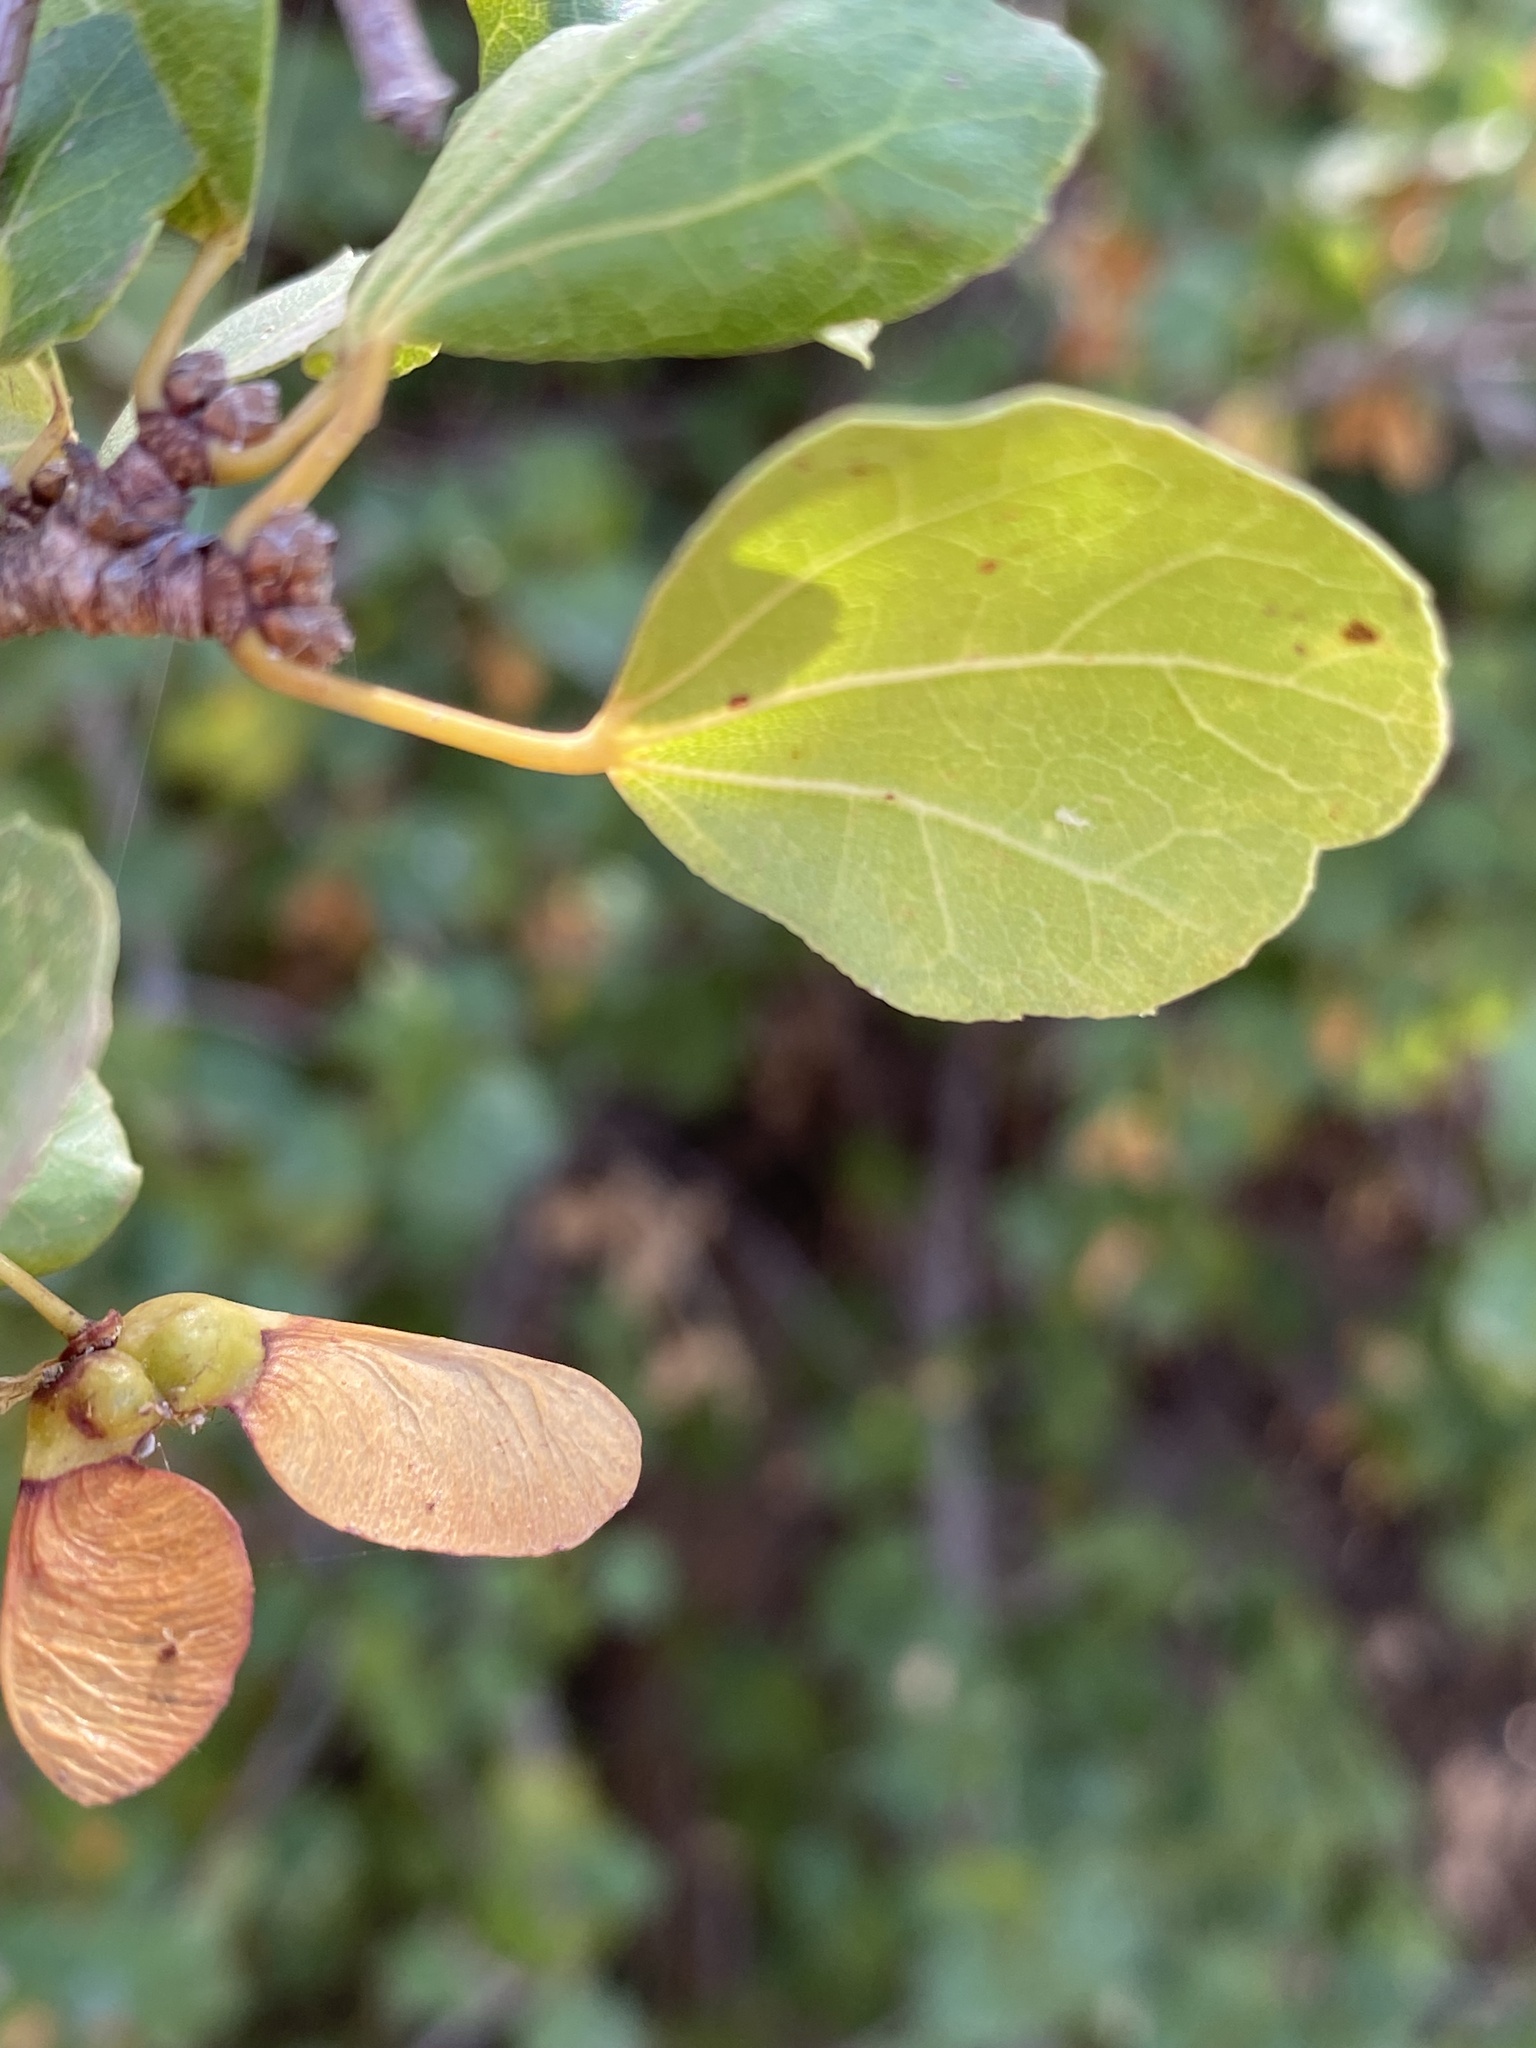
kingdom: Plantae
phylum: Tracheophyta
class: Magnoliopsida
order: Sapindales
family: Sapindaceae
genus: Acer
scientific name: Acer monspessulanum
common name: Montpellier maple
